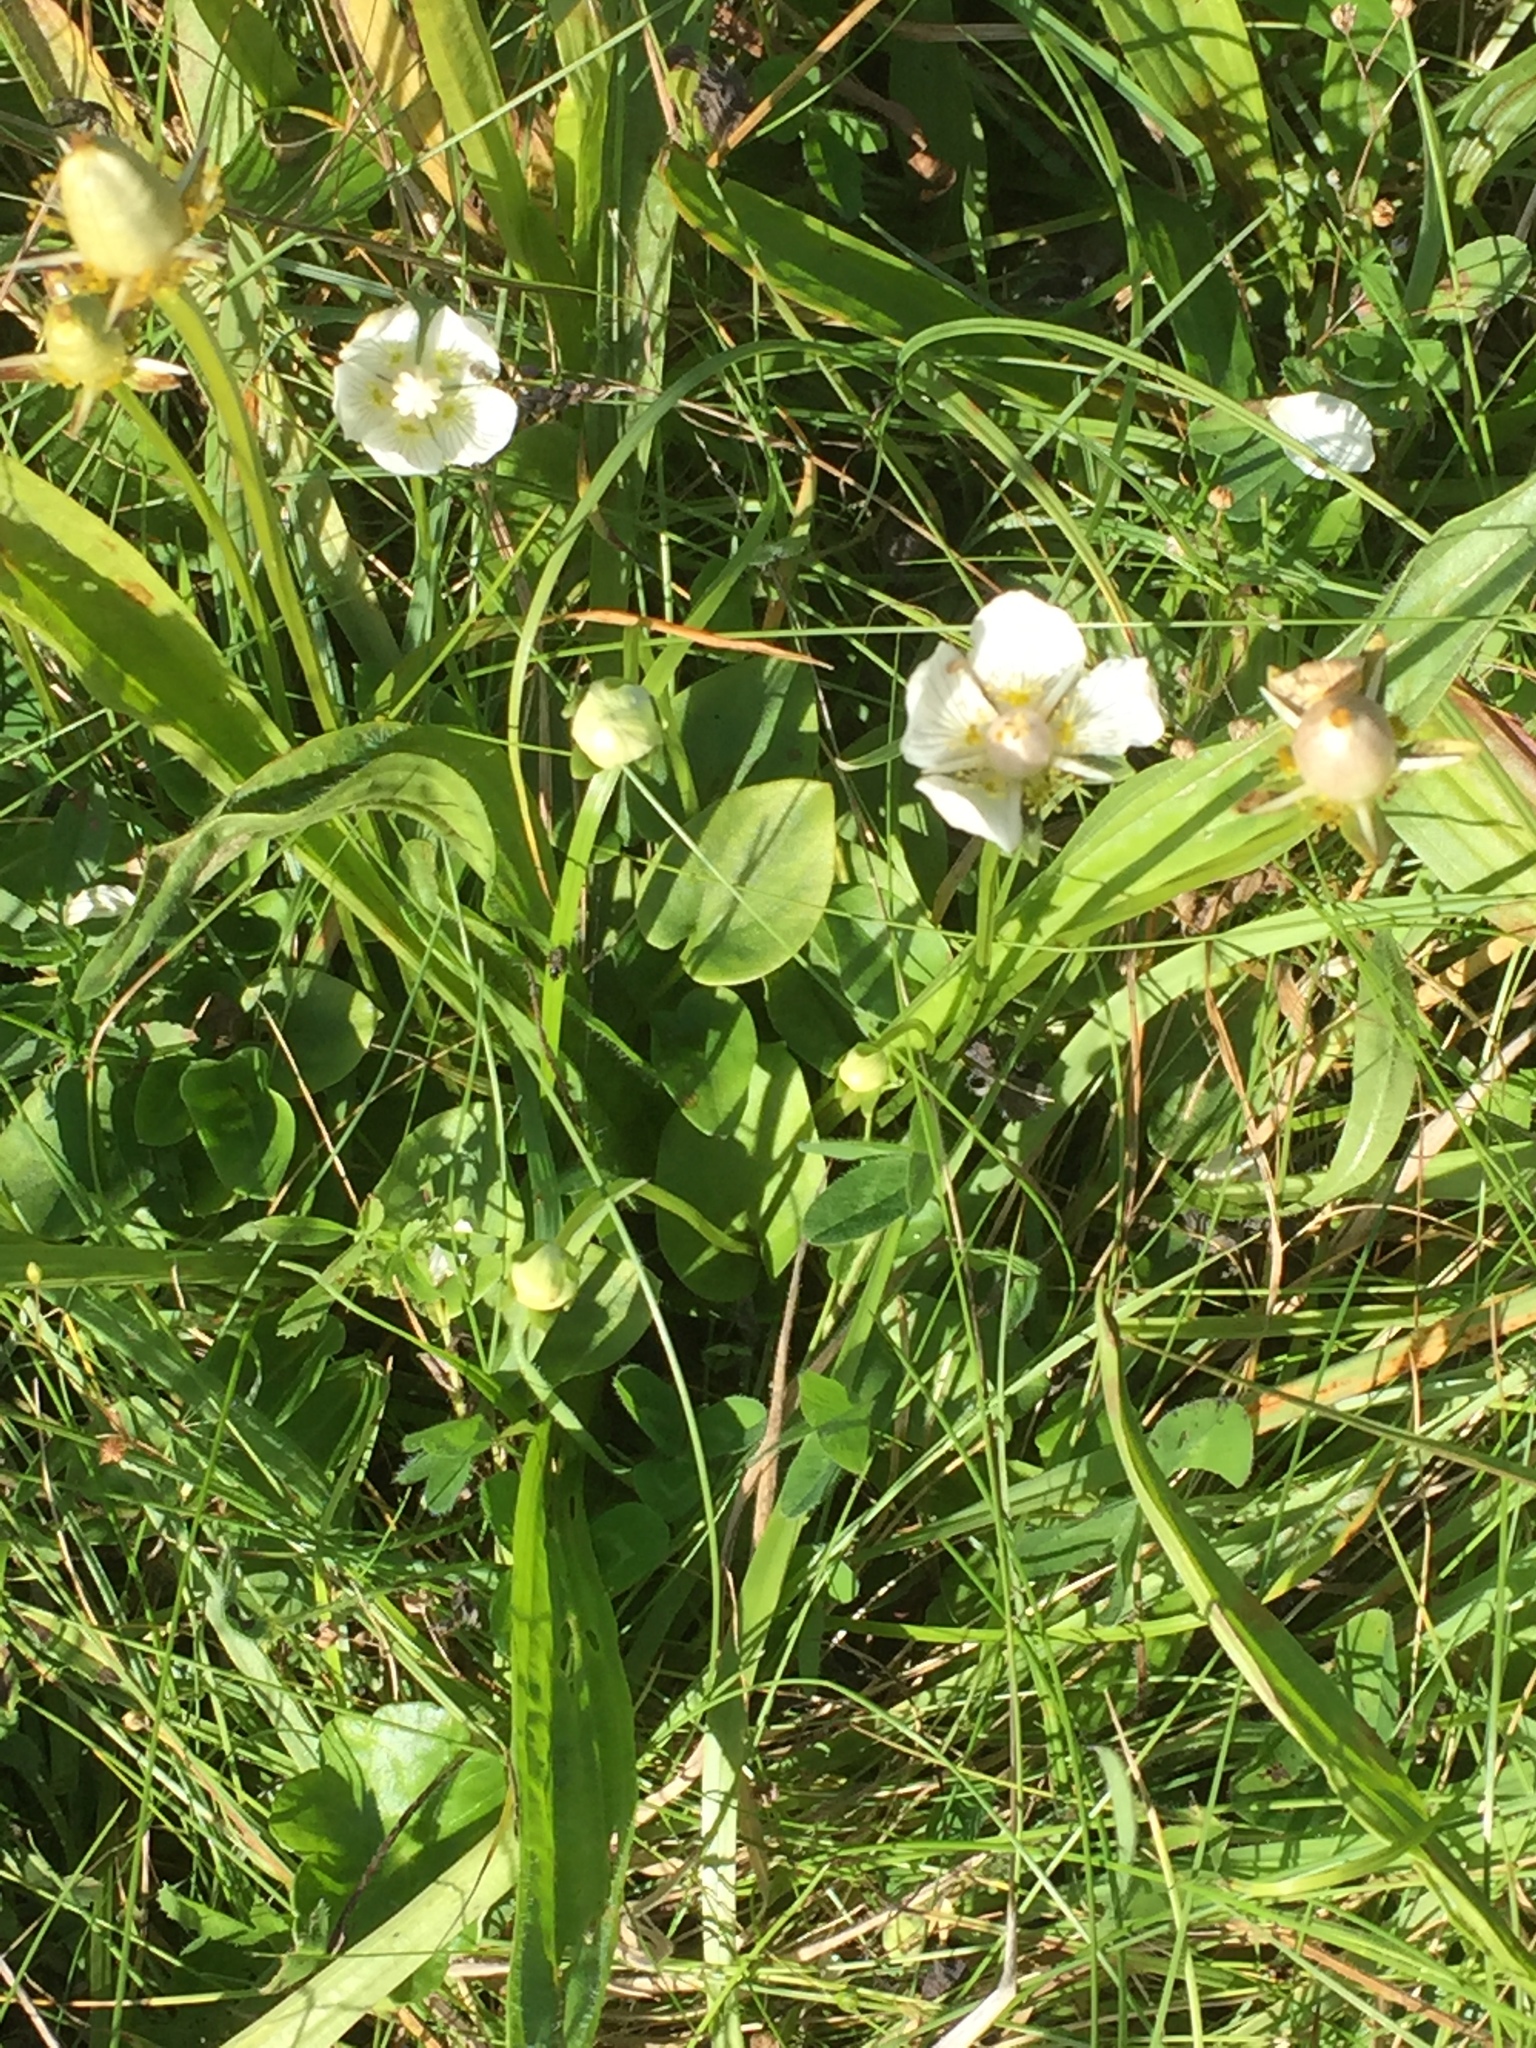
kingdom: Plantae
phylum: Tracheophyta
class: Magnoliopsida
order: Celastrales
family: Parnassiaceae
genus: Parnassia
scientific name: Parnassia palustris
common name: Grass-of-parnassus
